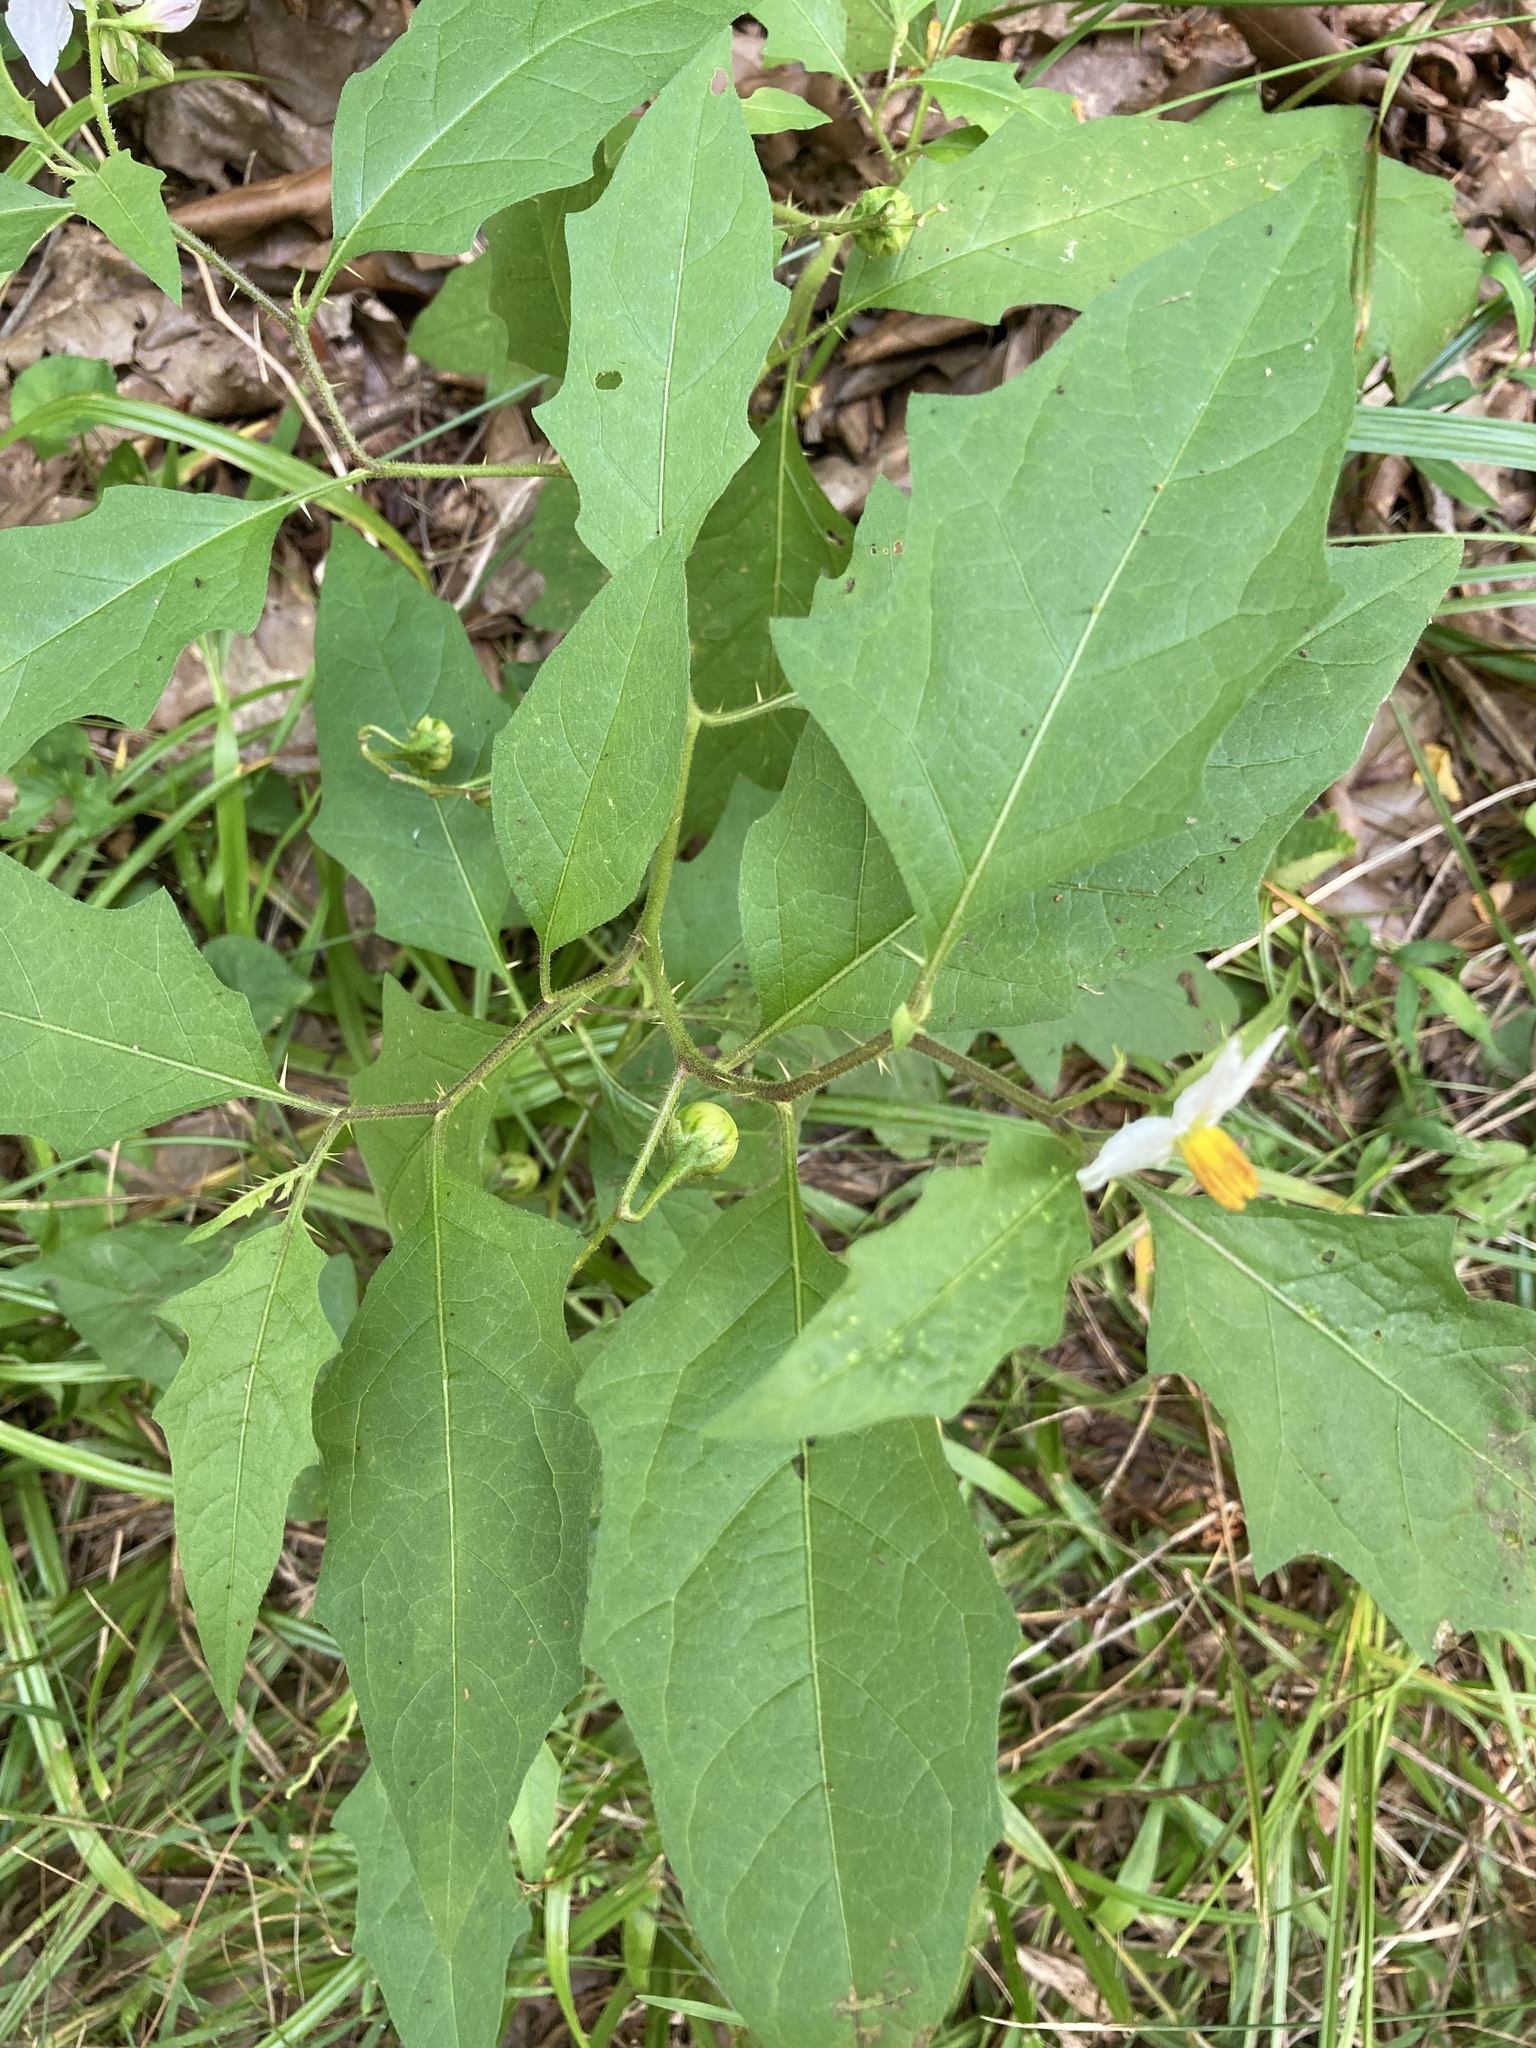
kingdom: Plantae
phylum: Tracheophyta
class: Magnoliopsida
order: Solanales
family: Solanaceae
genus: Solanum
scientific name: Solanum carolinense
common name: Horse-nettle
